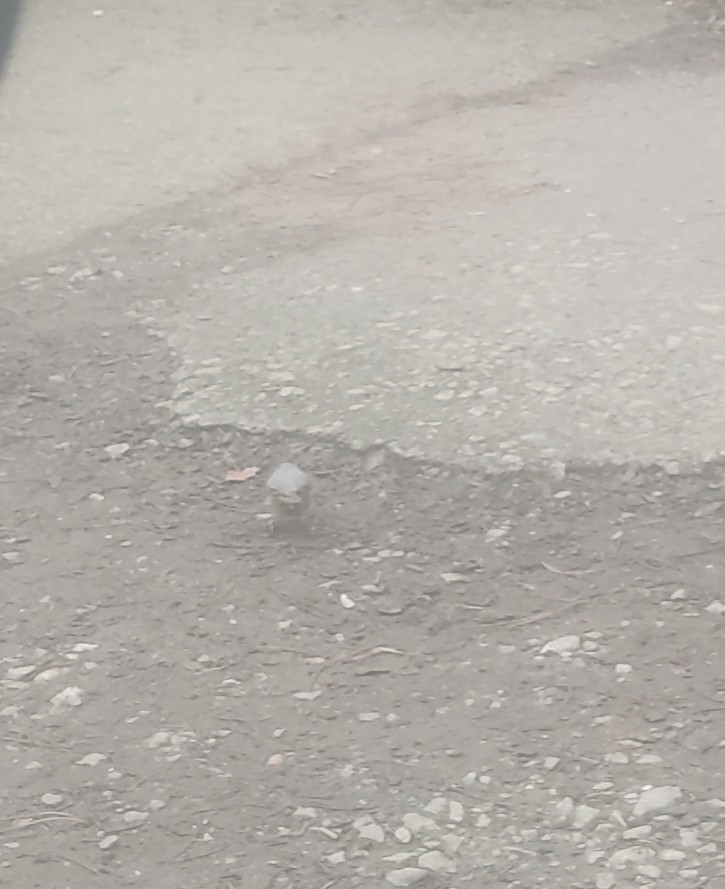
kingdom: Animalia
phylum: Chordata
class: Aves
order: Passeriformes
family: Sittidae
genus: Sitta
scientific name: Sitta europaea
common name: Eurasian nuthatch
